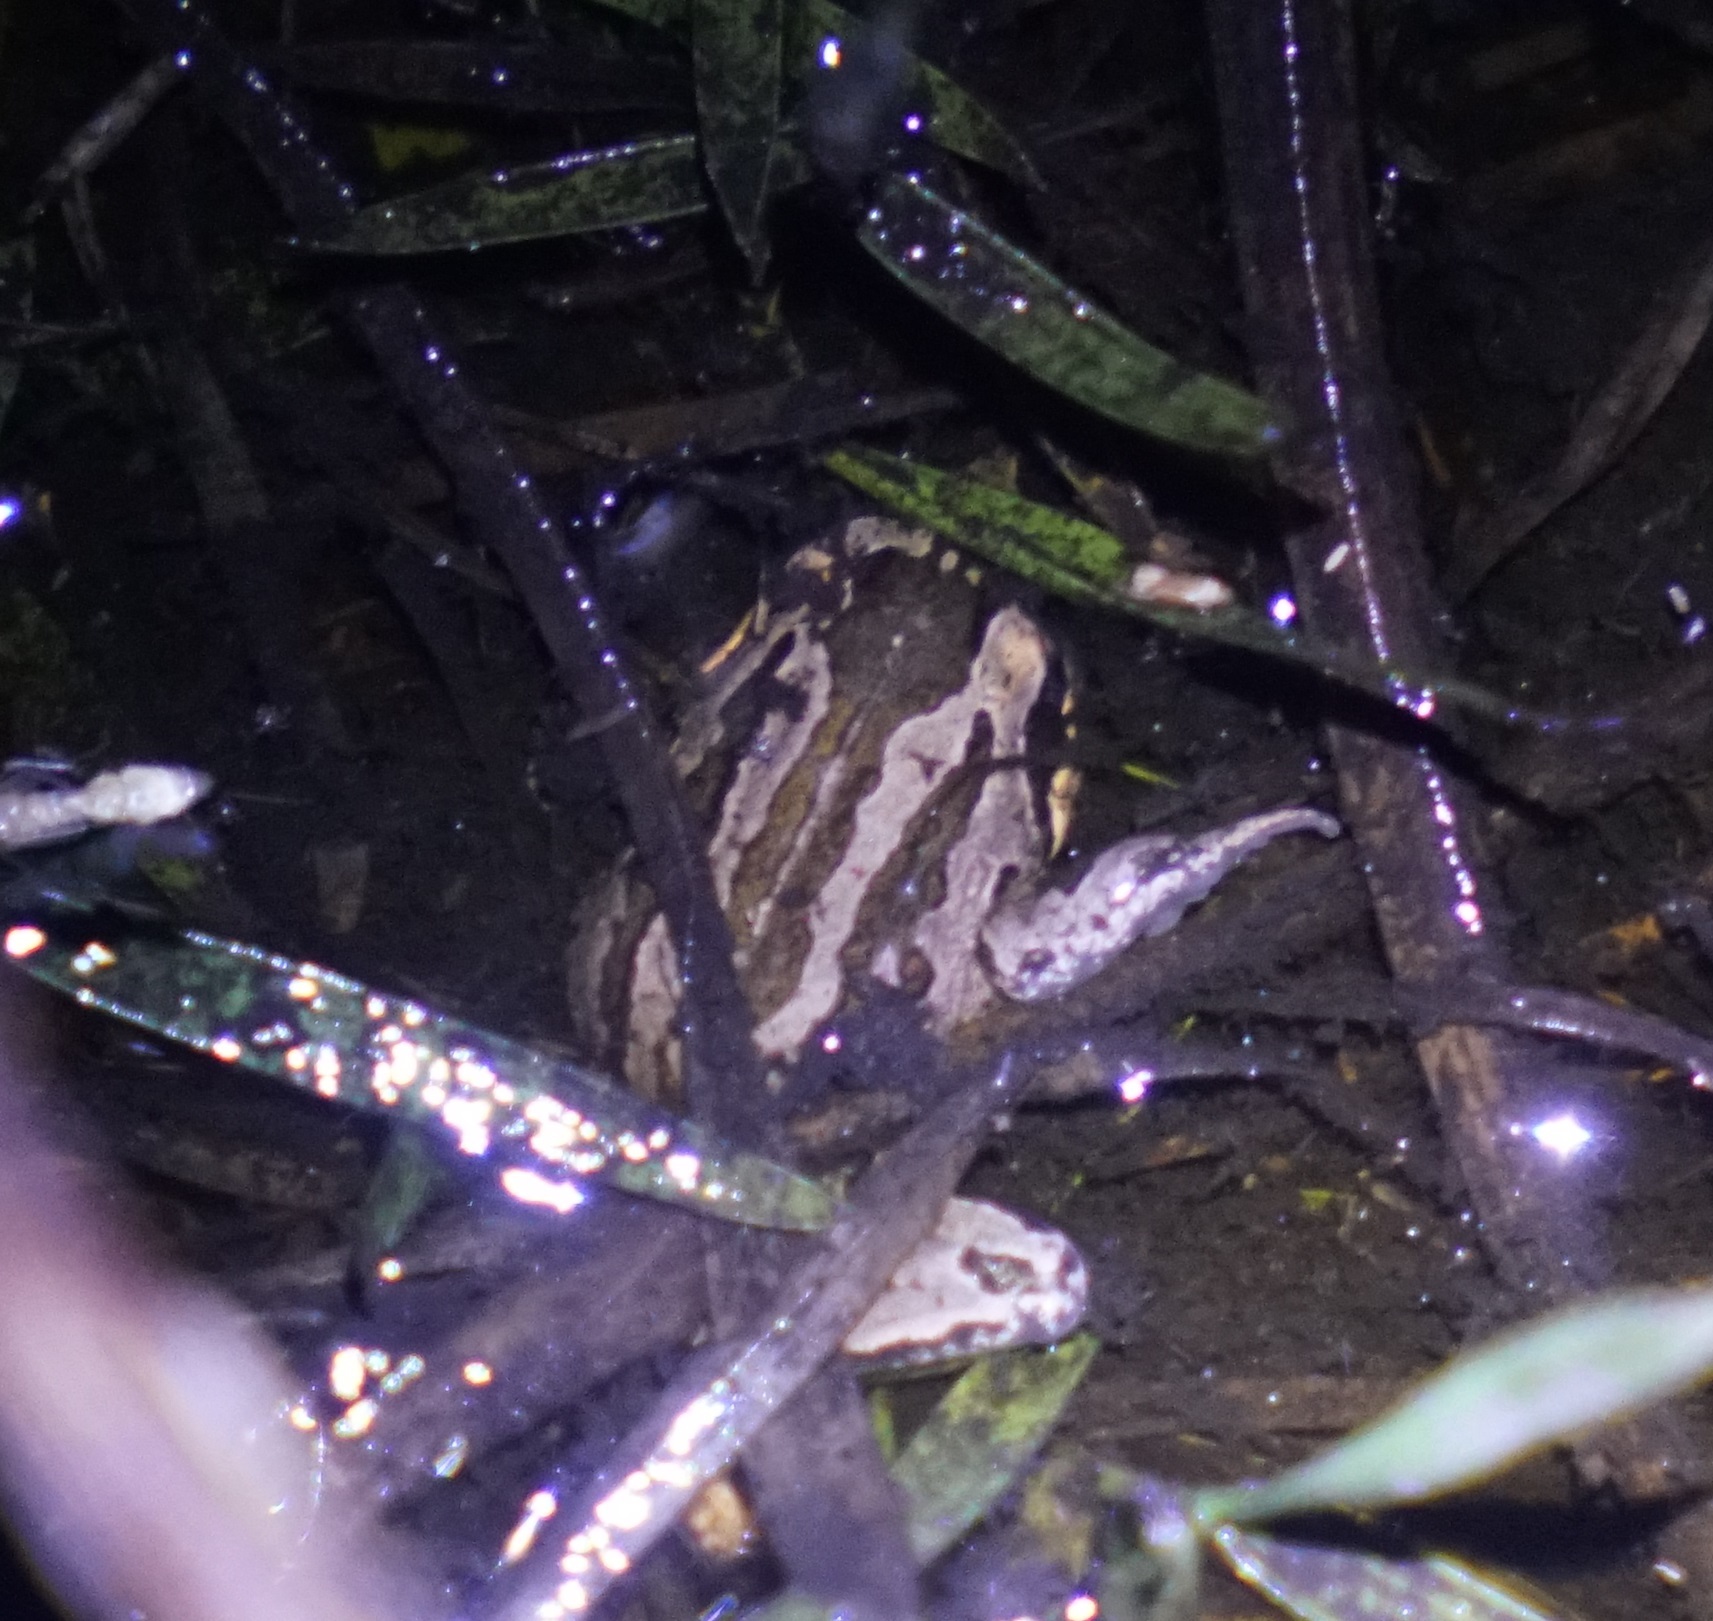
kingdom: Animalia
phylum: Chordata
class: Amphibia
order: Anura
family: Limnodynastidae
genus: Limnodynastes
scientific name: Limnodynastes peronii
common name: Brown frog
